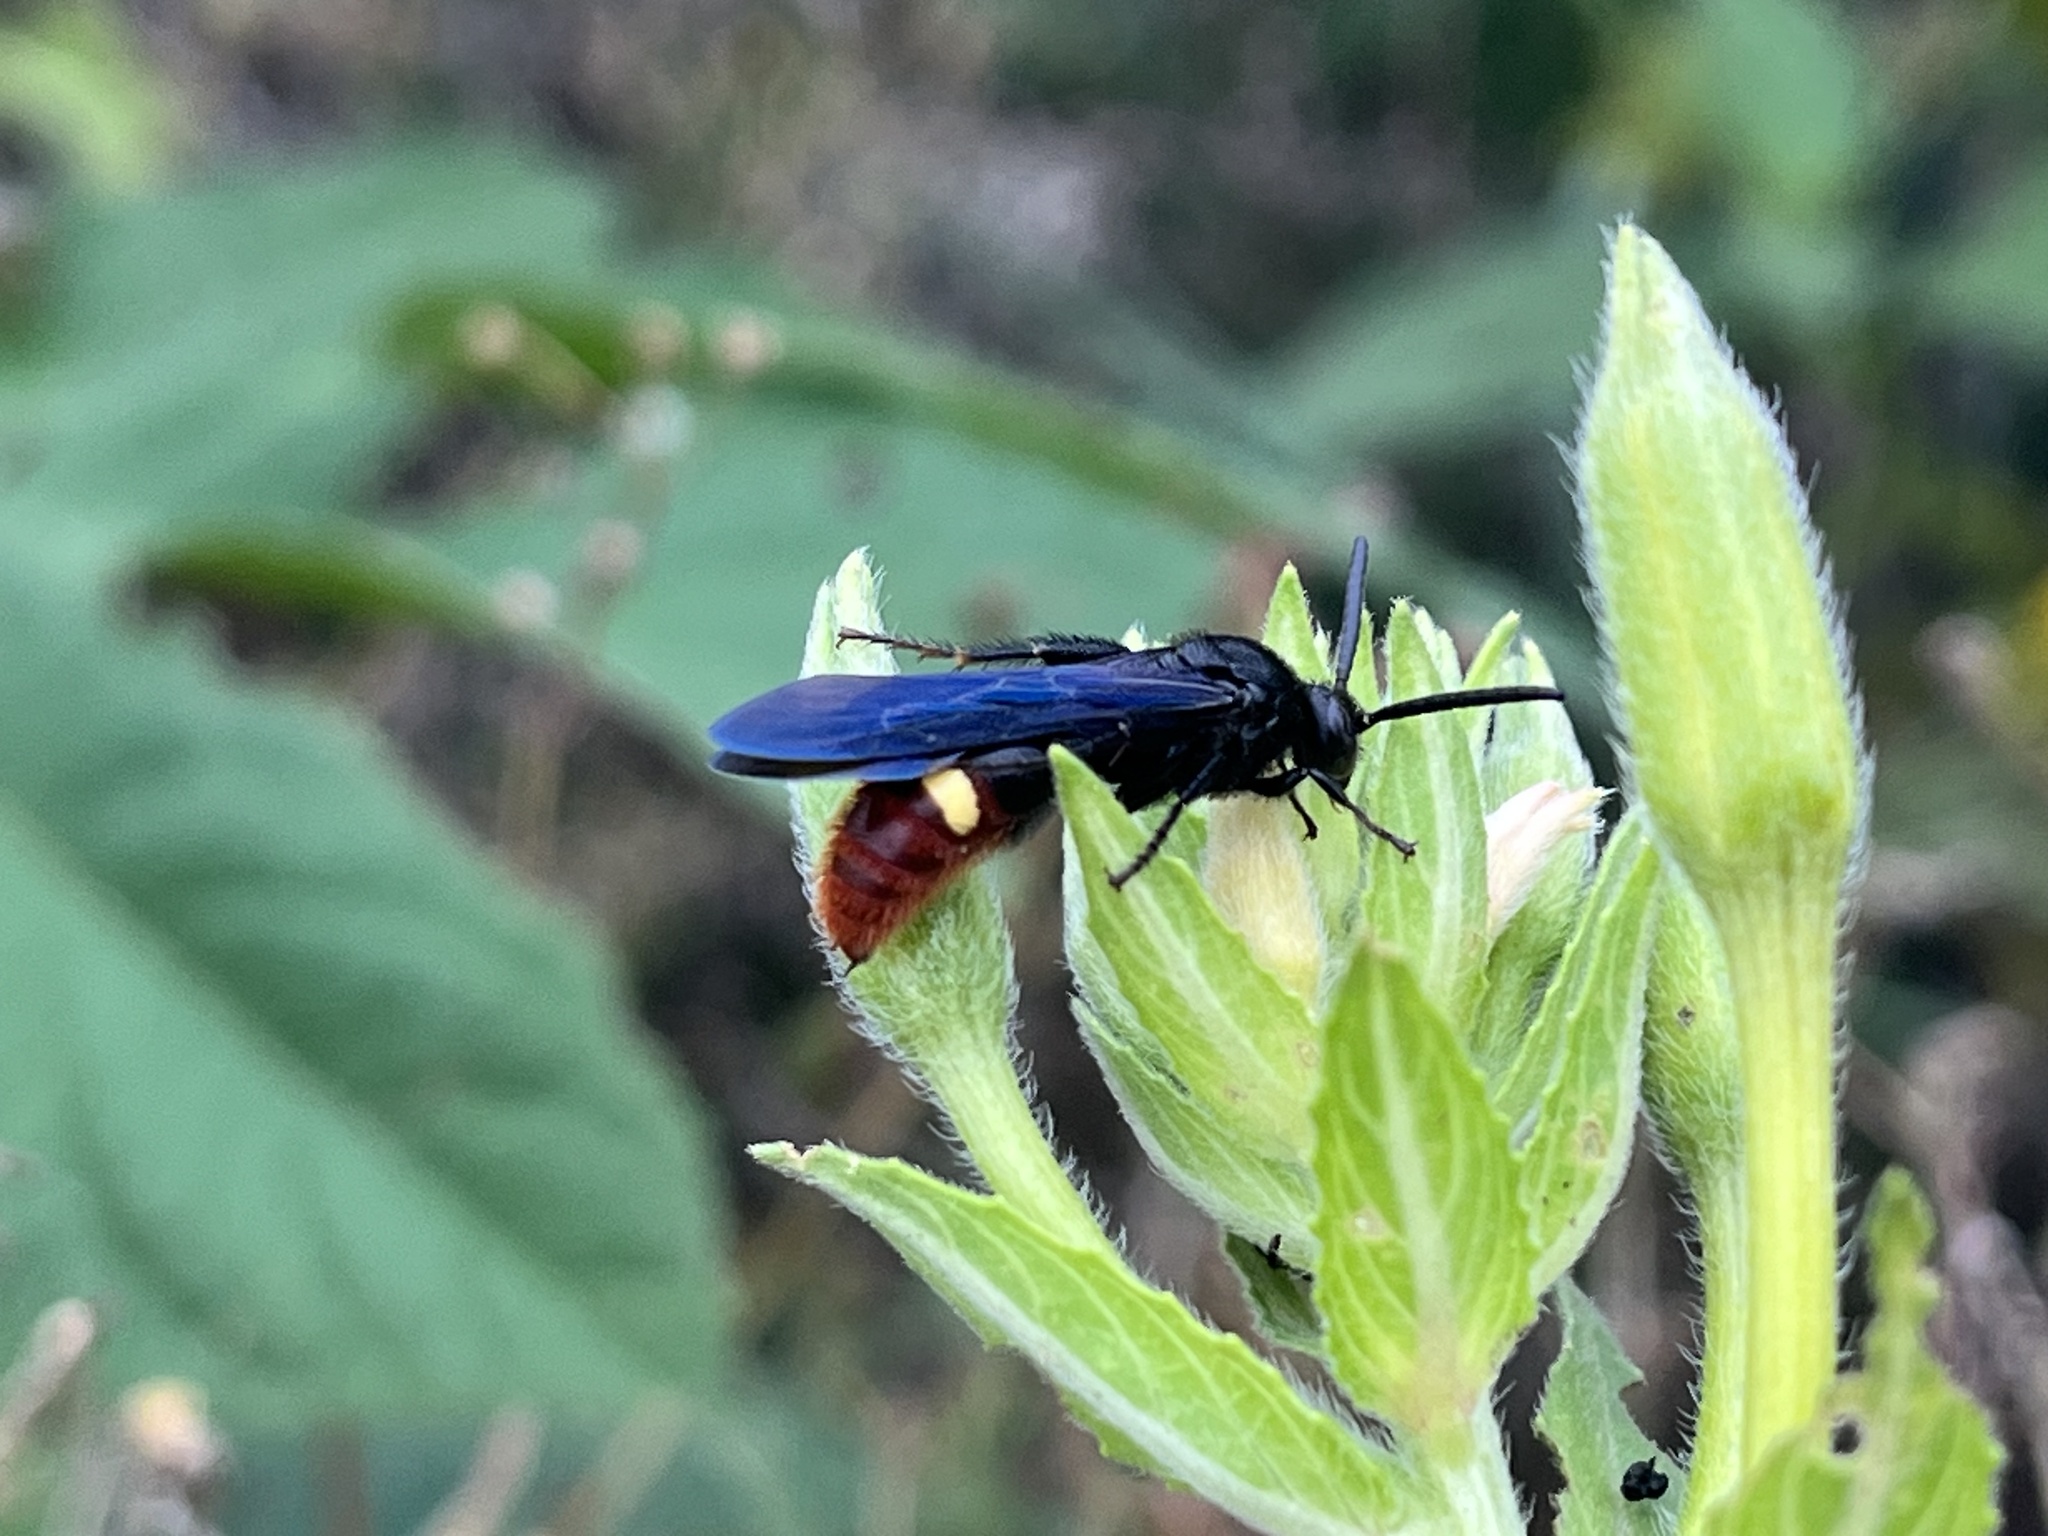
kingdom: Animalia
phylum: Arthropoda
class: Insecta
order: Hymenoptera
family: Scoliidae
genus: Scolia
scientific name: Scolia dubia
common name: Blue-winged scoliid wasp
